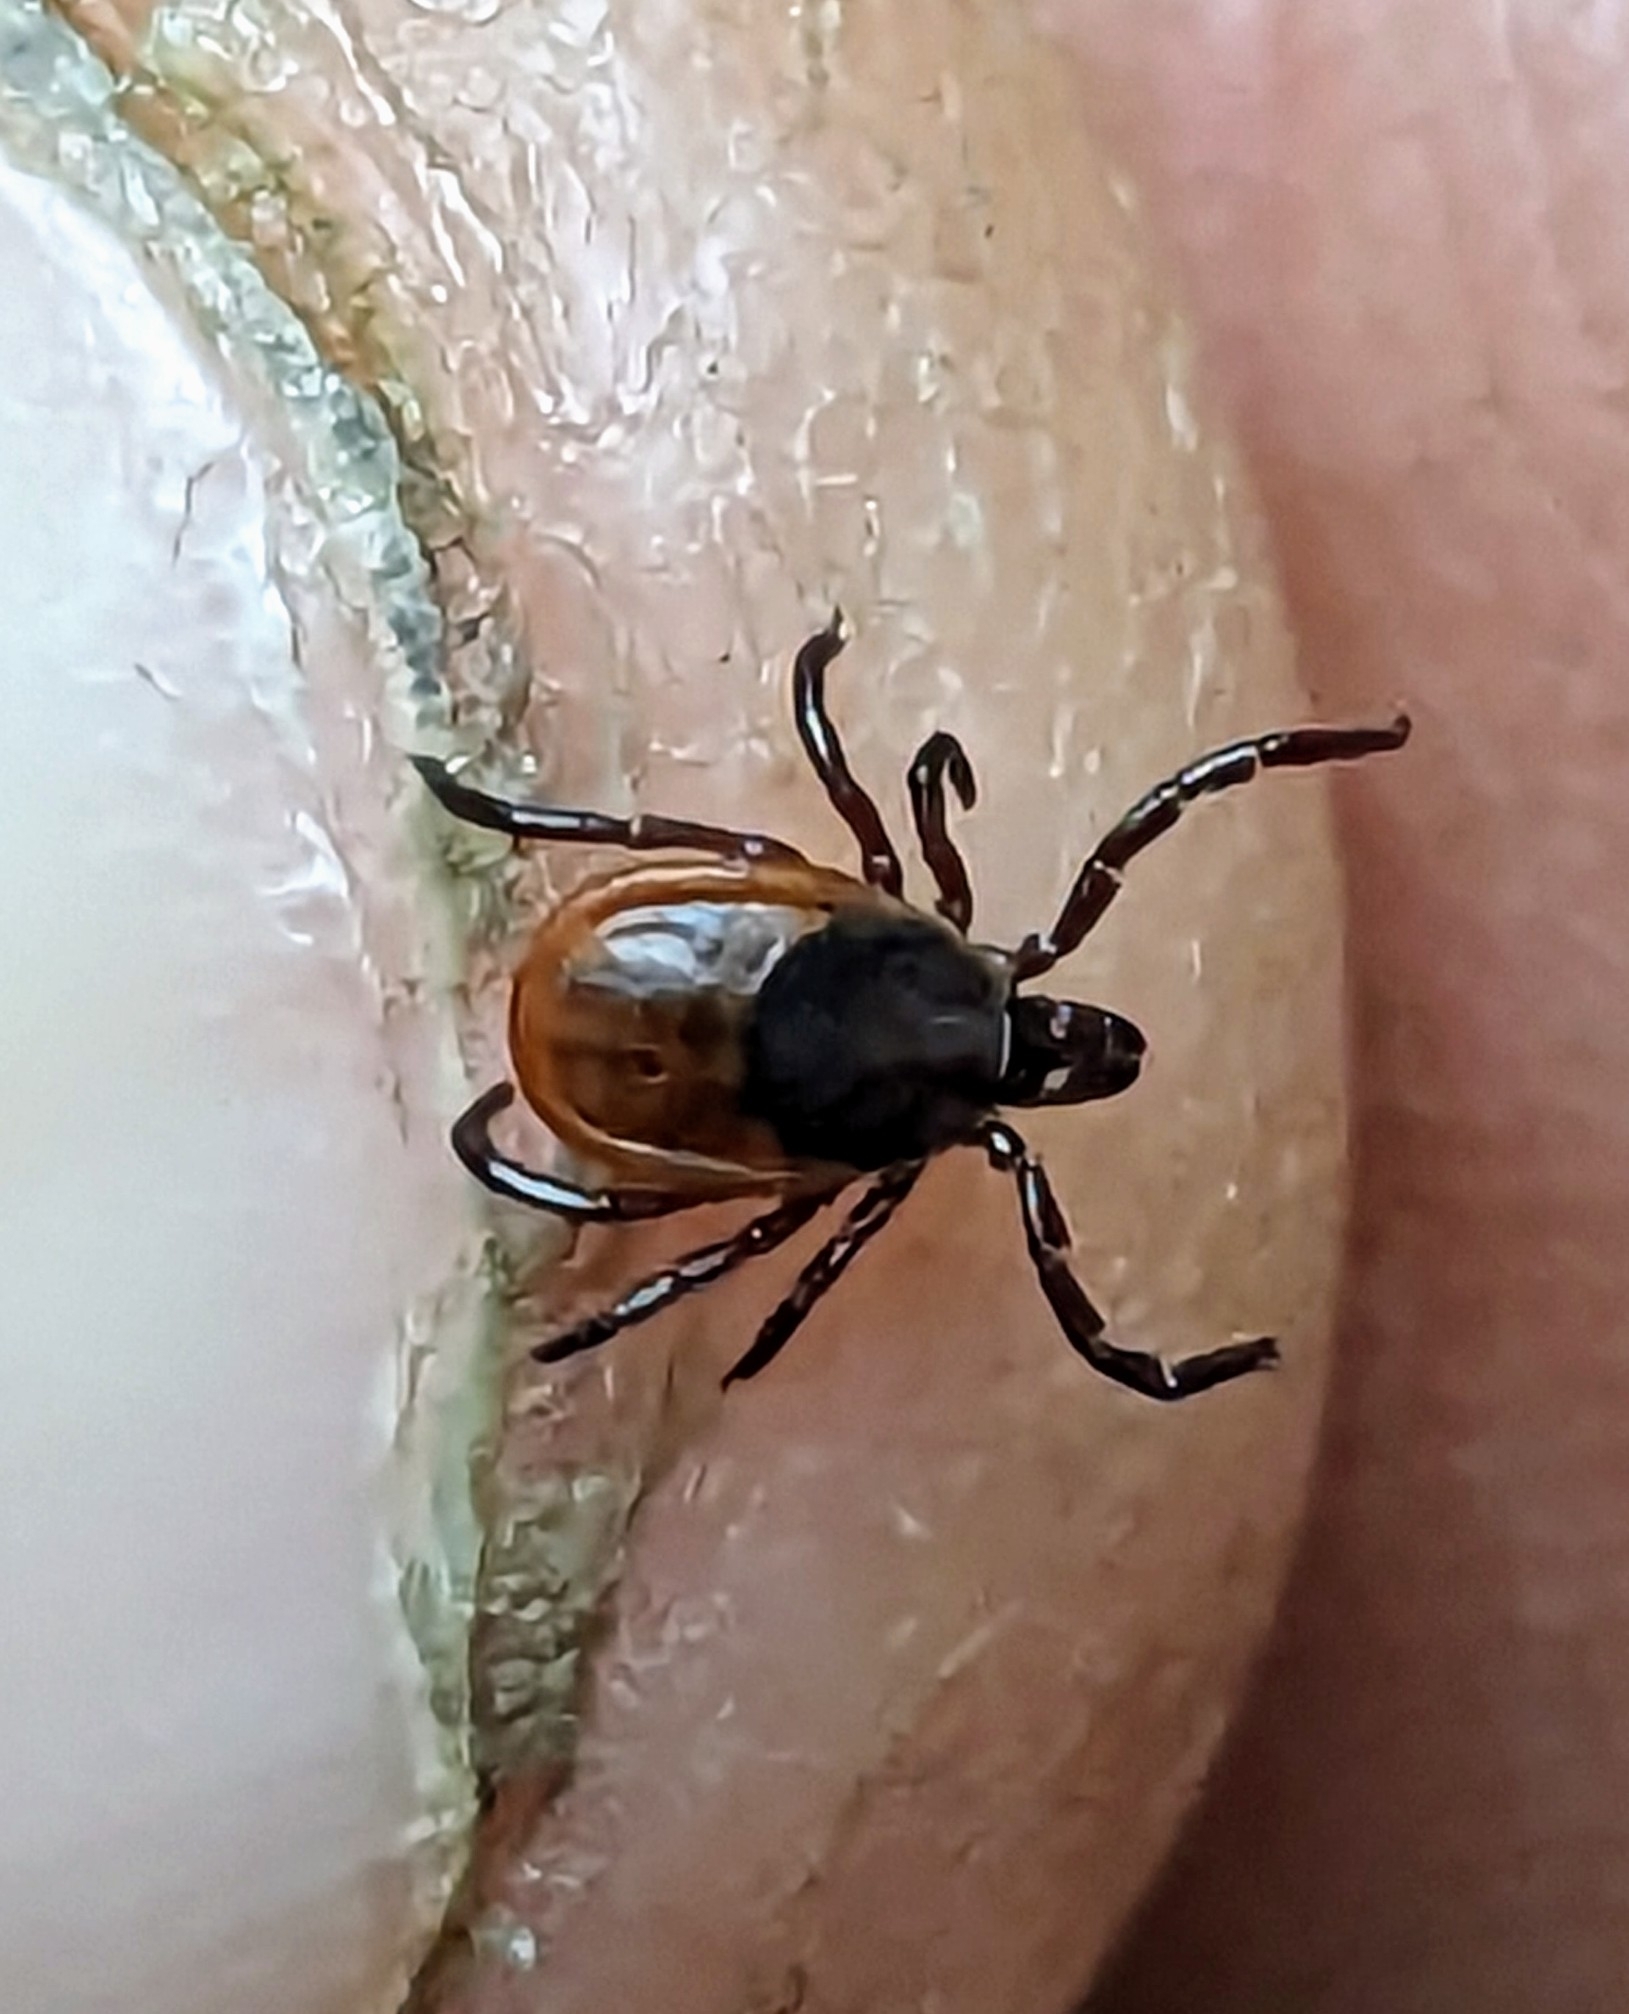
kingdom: Animalia
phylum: Arthropoda
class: Arachnida
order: Ixodida
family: Ixodidae
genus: Ixodes
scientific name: Ixodes scapularis
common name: Black legged tick
